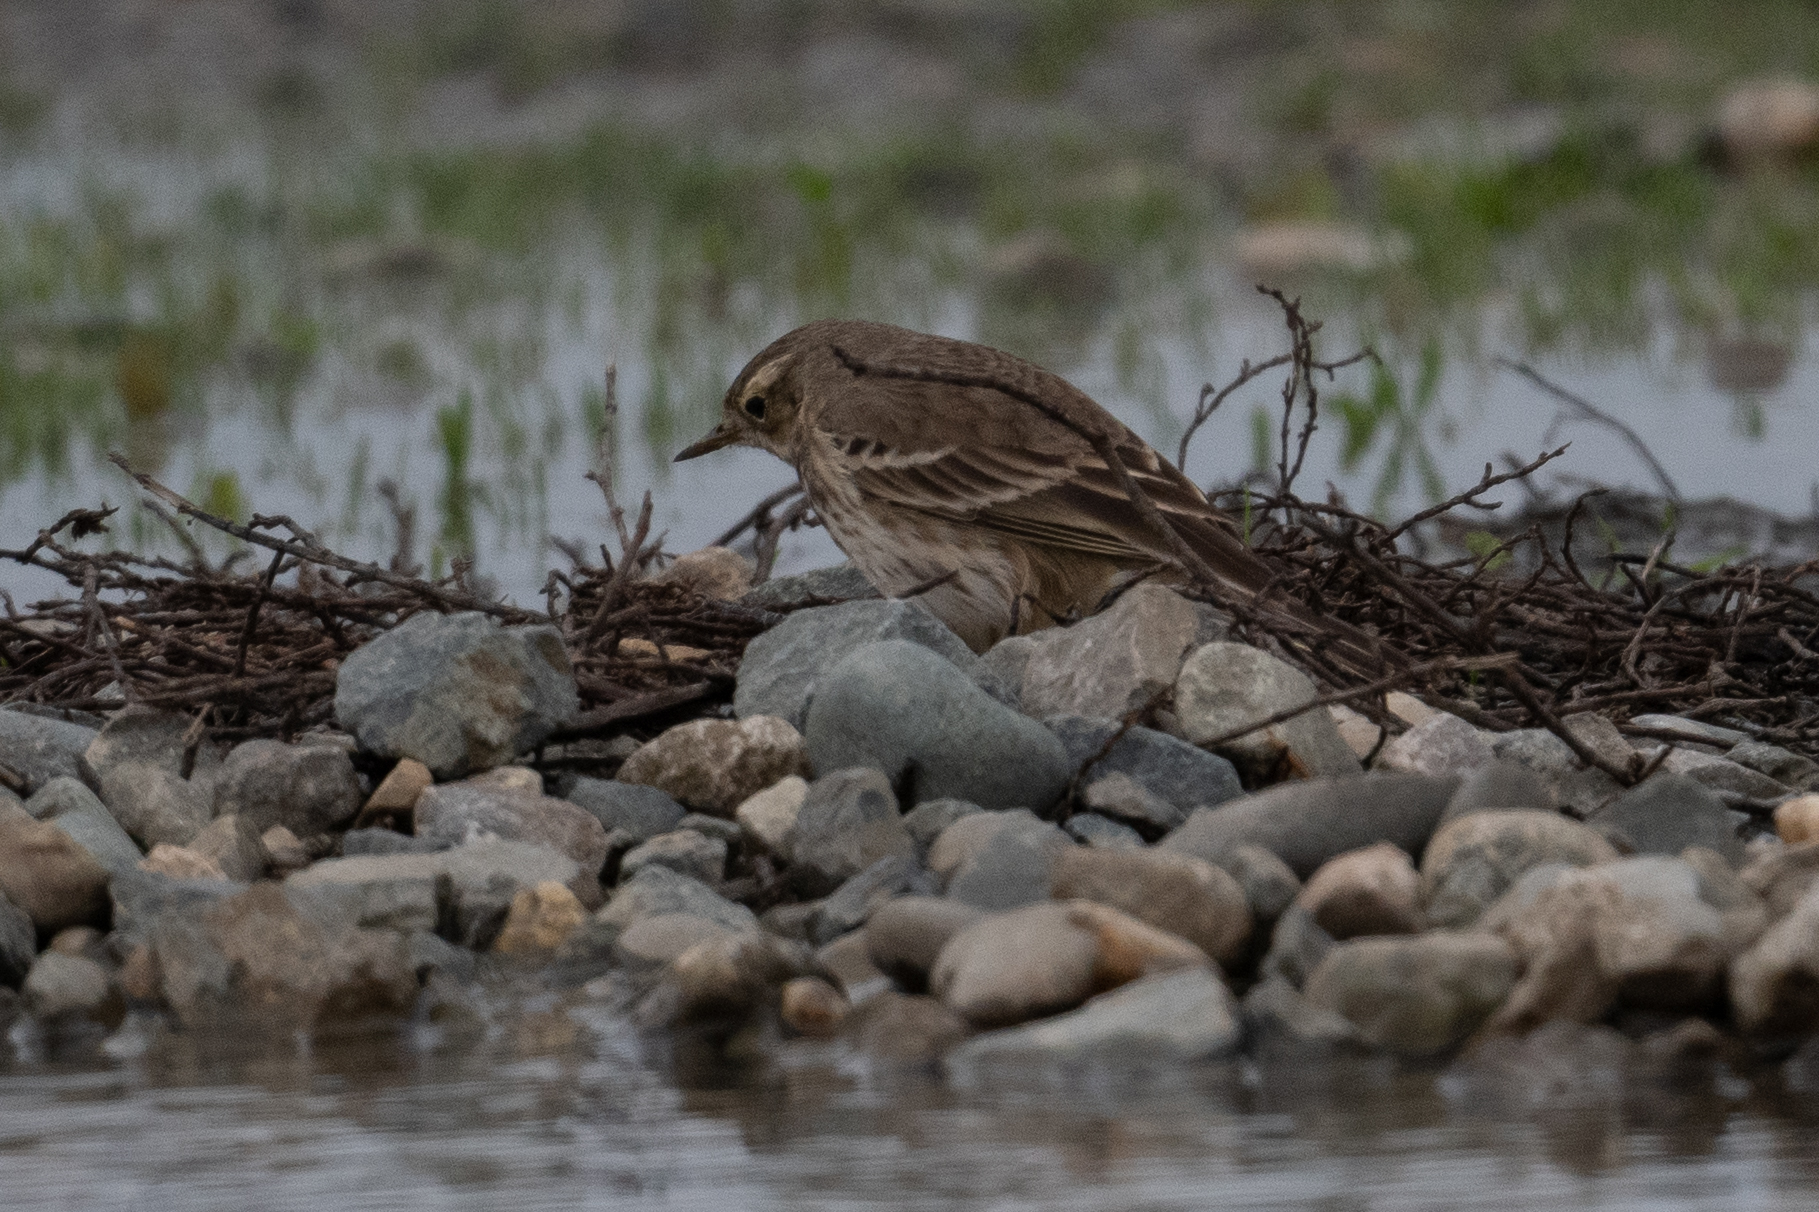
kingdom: Animalia
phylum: Chordata
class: Aves
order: Passeriformes
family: Motacillidae
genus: Anthus
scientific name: Anthus rubescens
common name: Buff-bellied pipit
